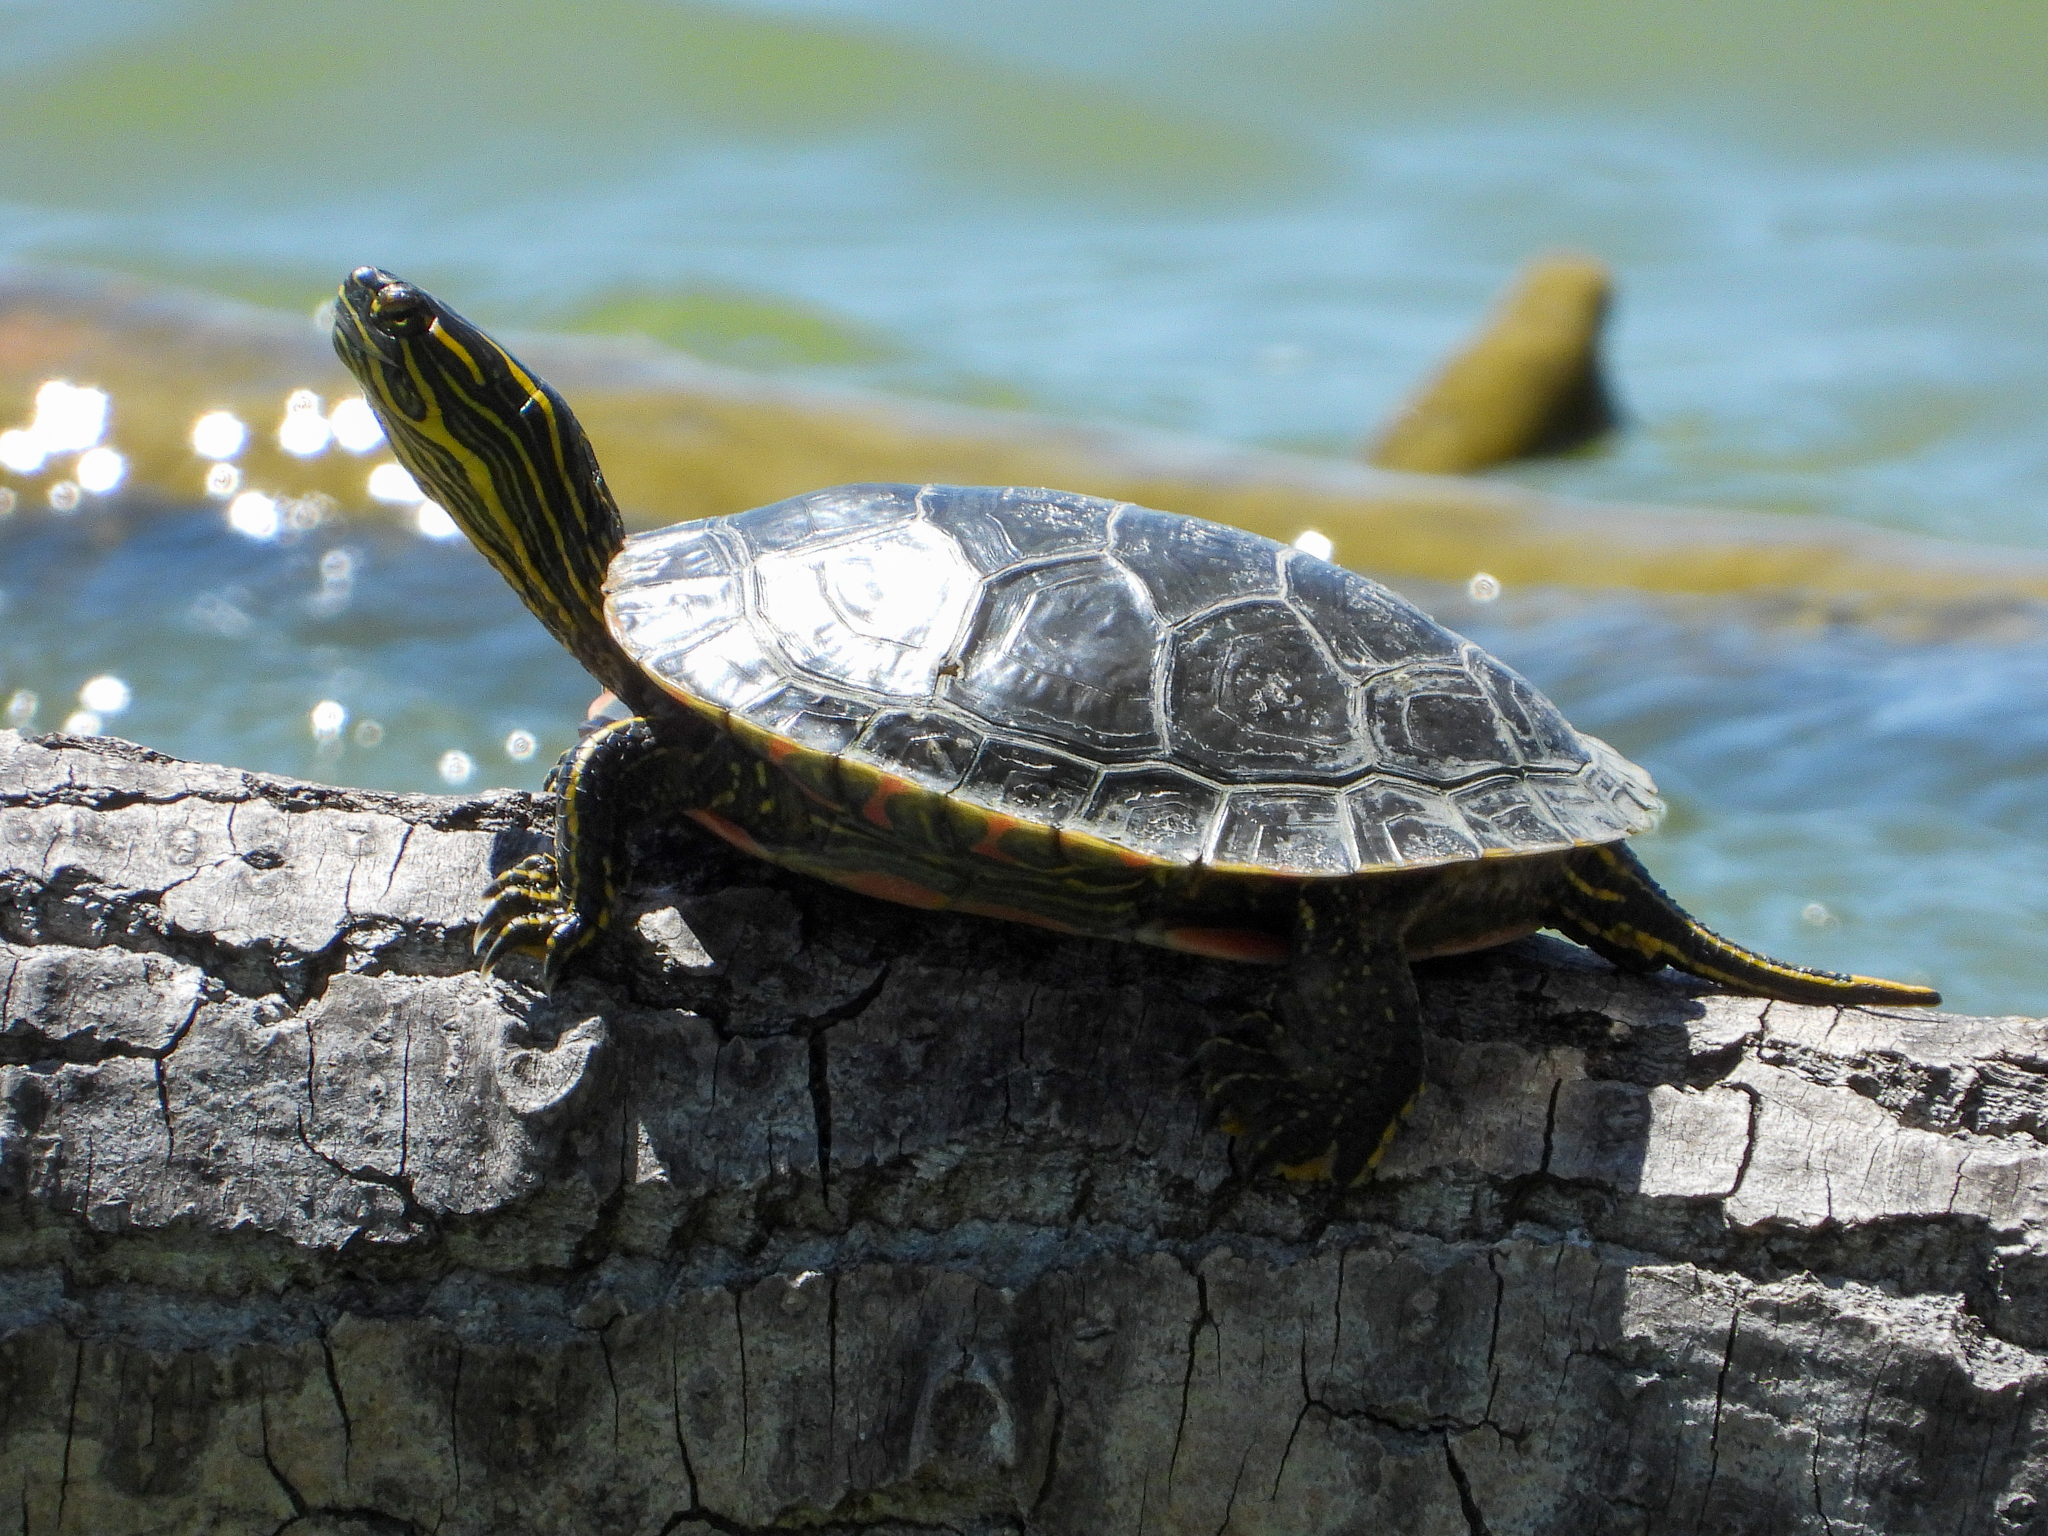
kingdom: Animalia
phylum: Chordata
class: Testudines
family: Emydidae
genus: Chrysemys
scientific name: Chrysemys picta
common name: Painted turtle
